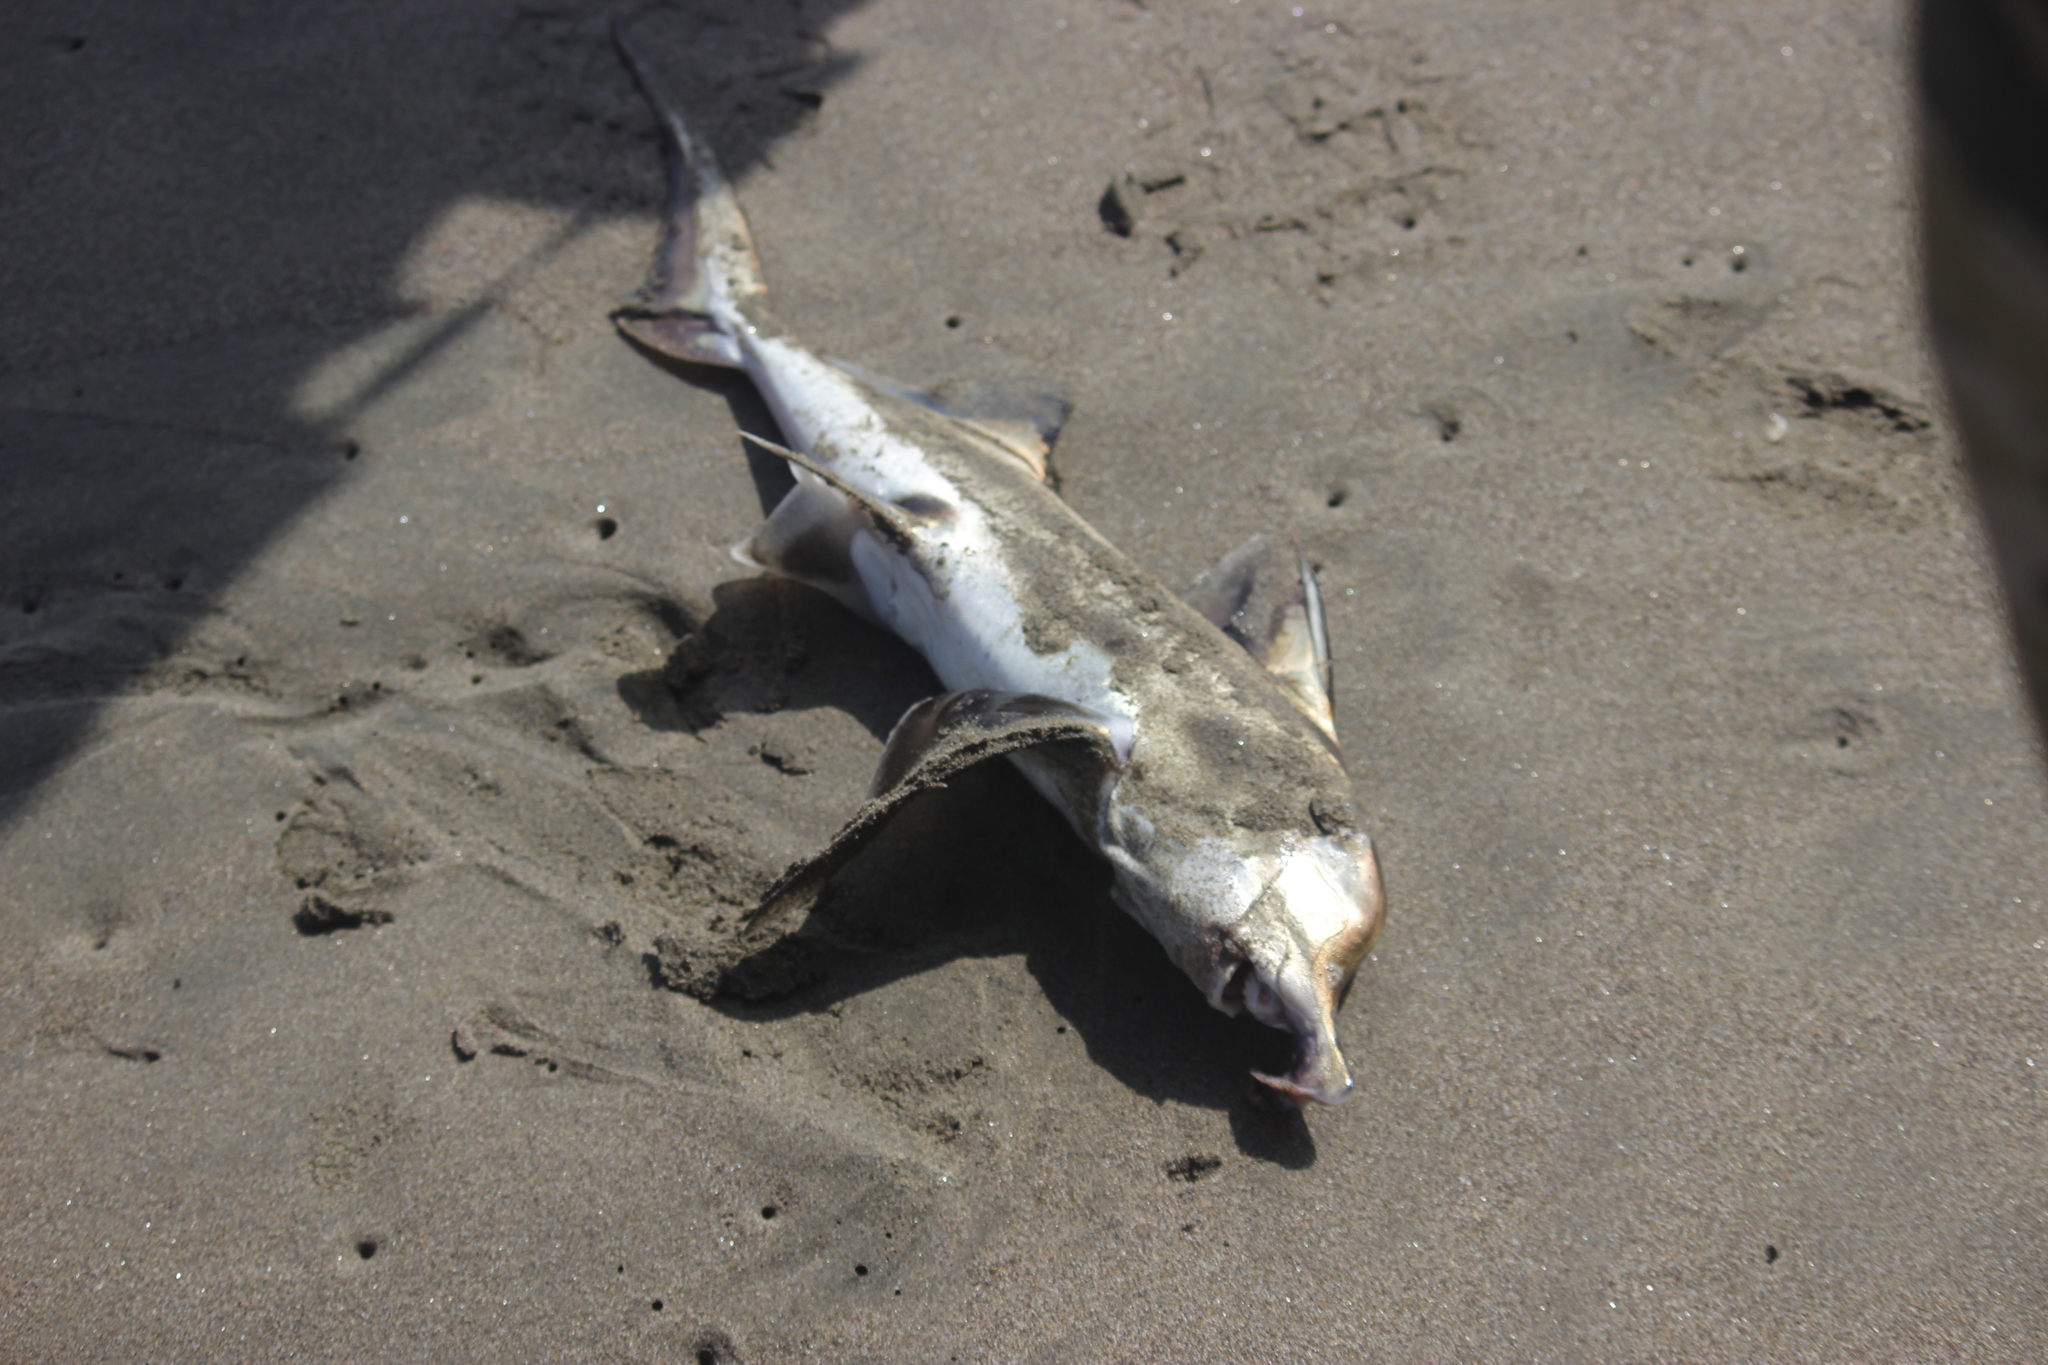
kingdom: Animalia
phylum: Chordata
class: Holocephali
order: Chimaeriformes
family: Callorhinchidae
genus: Callorhinchus
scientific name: Callorhinchus callorynchus
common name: Elephant fish
